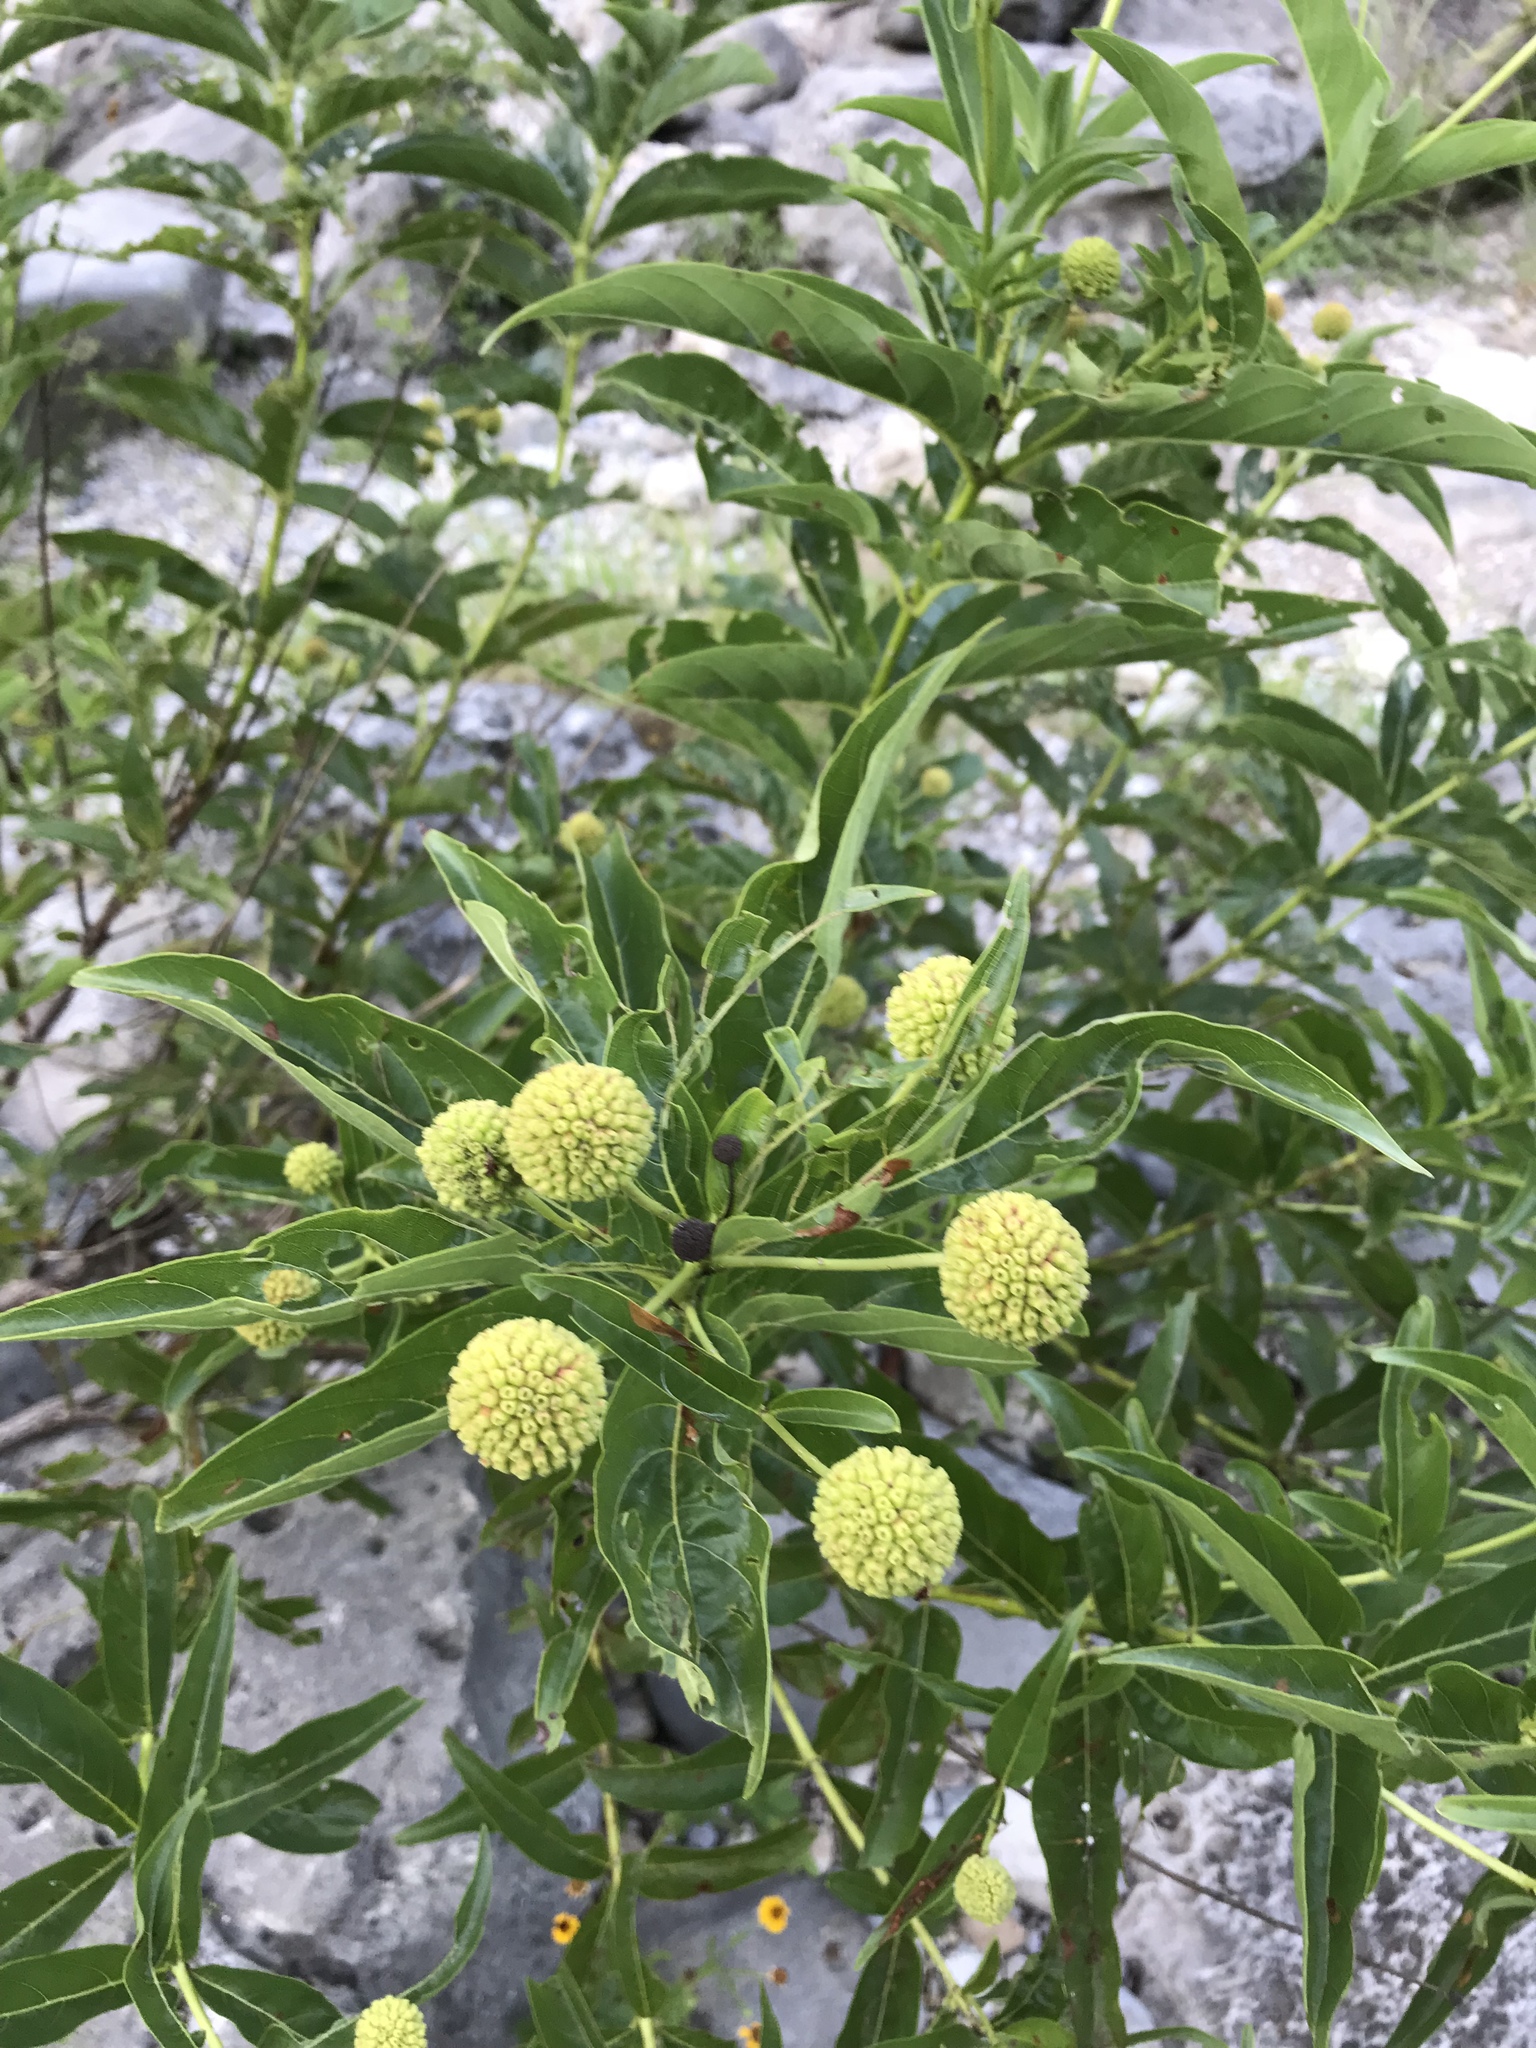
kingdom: Plantae
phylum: Tracheophyta
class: Magnoliopsida
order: Gentianales
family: Rubiaceae
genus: Cephalanthus
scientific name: Cephalanthus occidentalis
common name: Button-willow
